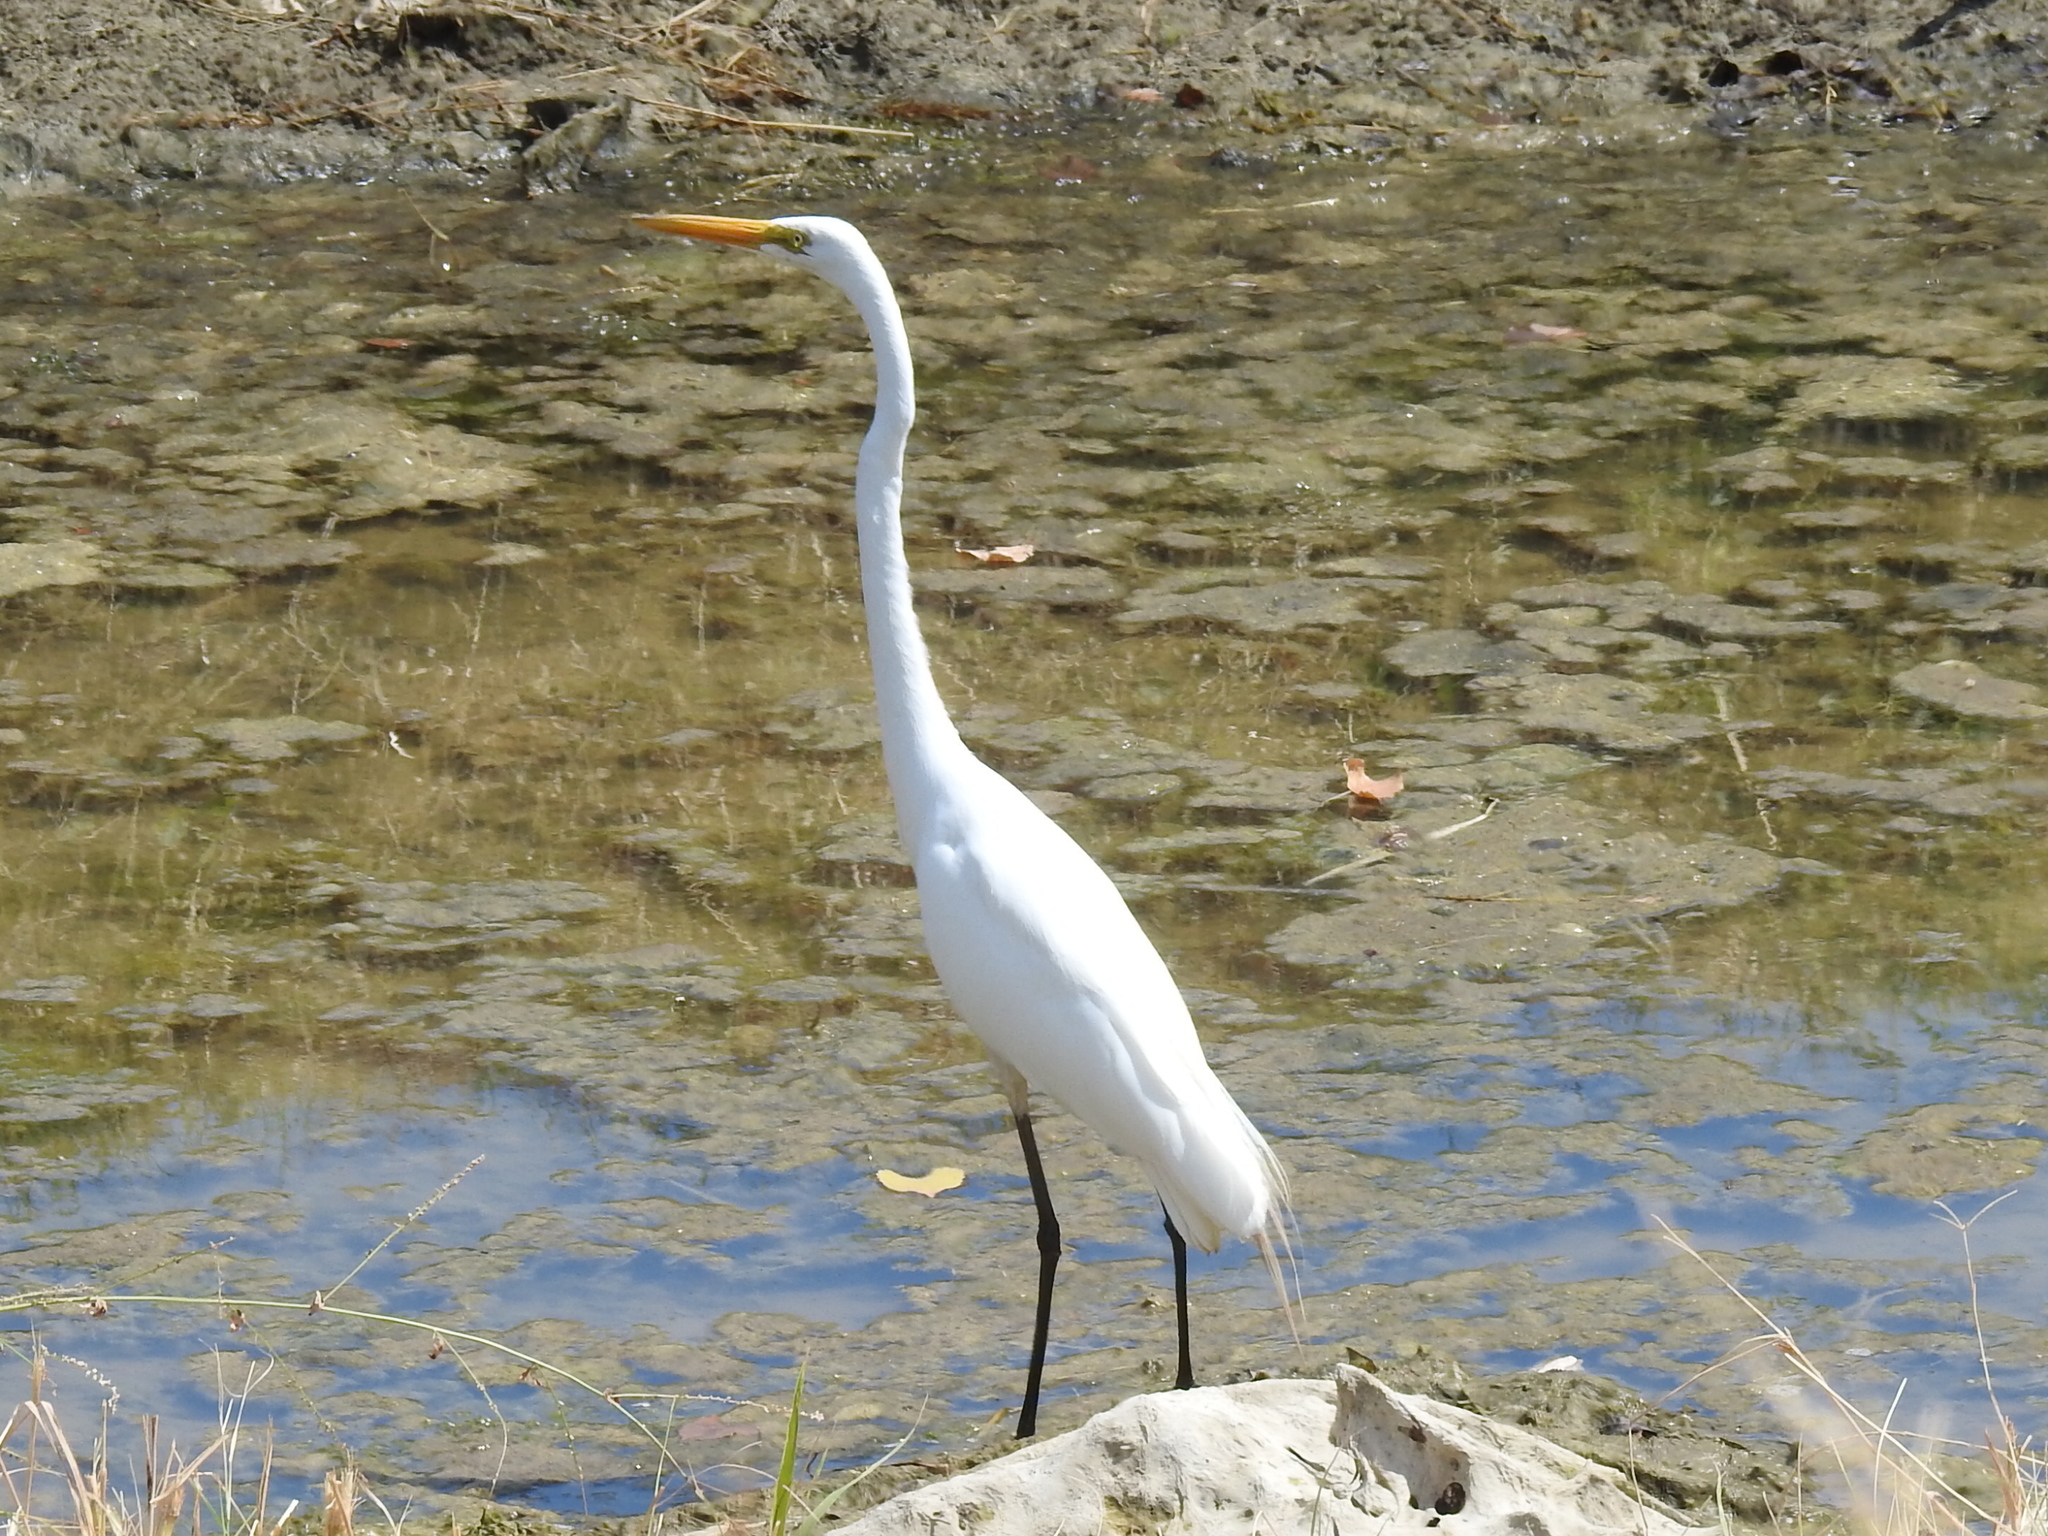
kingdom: Animalia
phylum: Chordata
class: Aves
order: Pelecaniformes
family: Ardeidae
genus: Ardea
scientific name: Ardea alba
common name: Great egret
